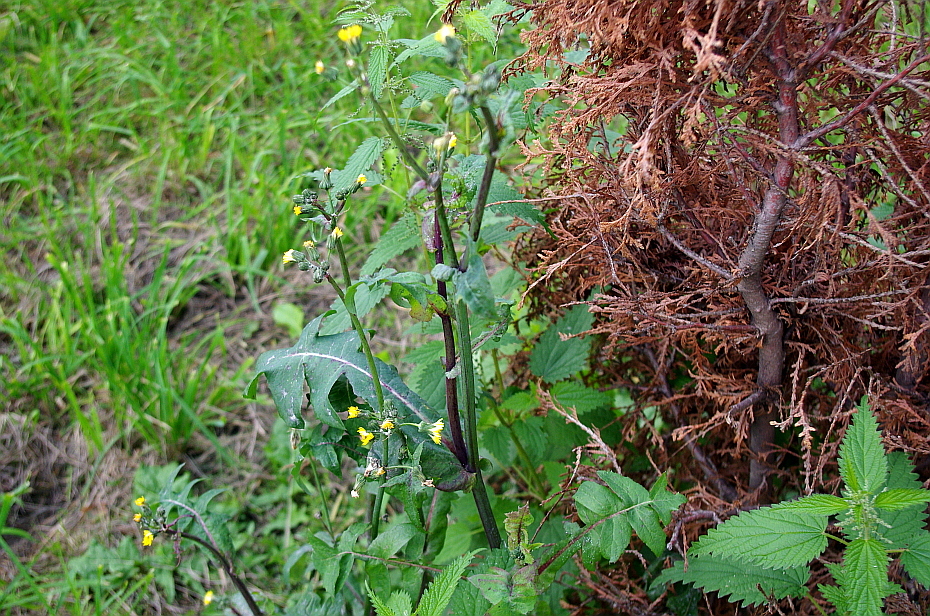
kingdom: Plantae
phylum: Tracheophyta
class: Magnoliopsida
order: Asterales
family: Asteraceae
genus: Sonchus
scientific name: Sonchus oleraceus
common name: Common sowthistle
